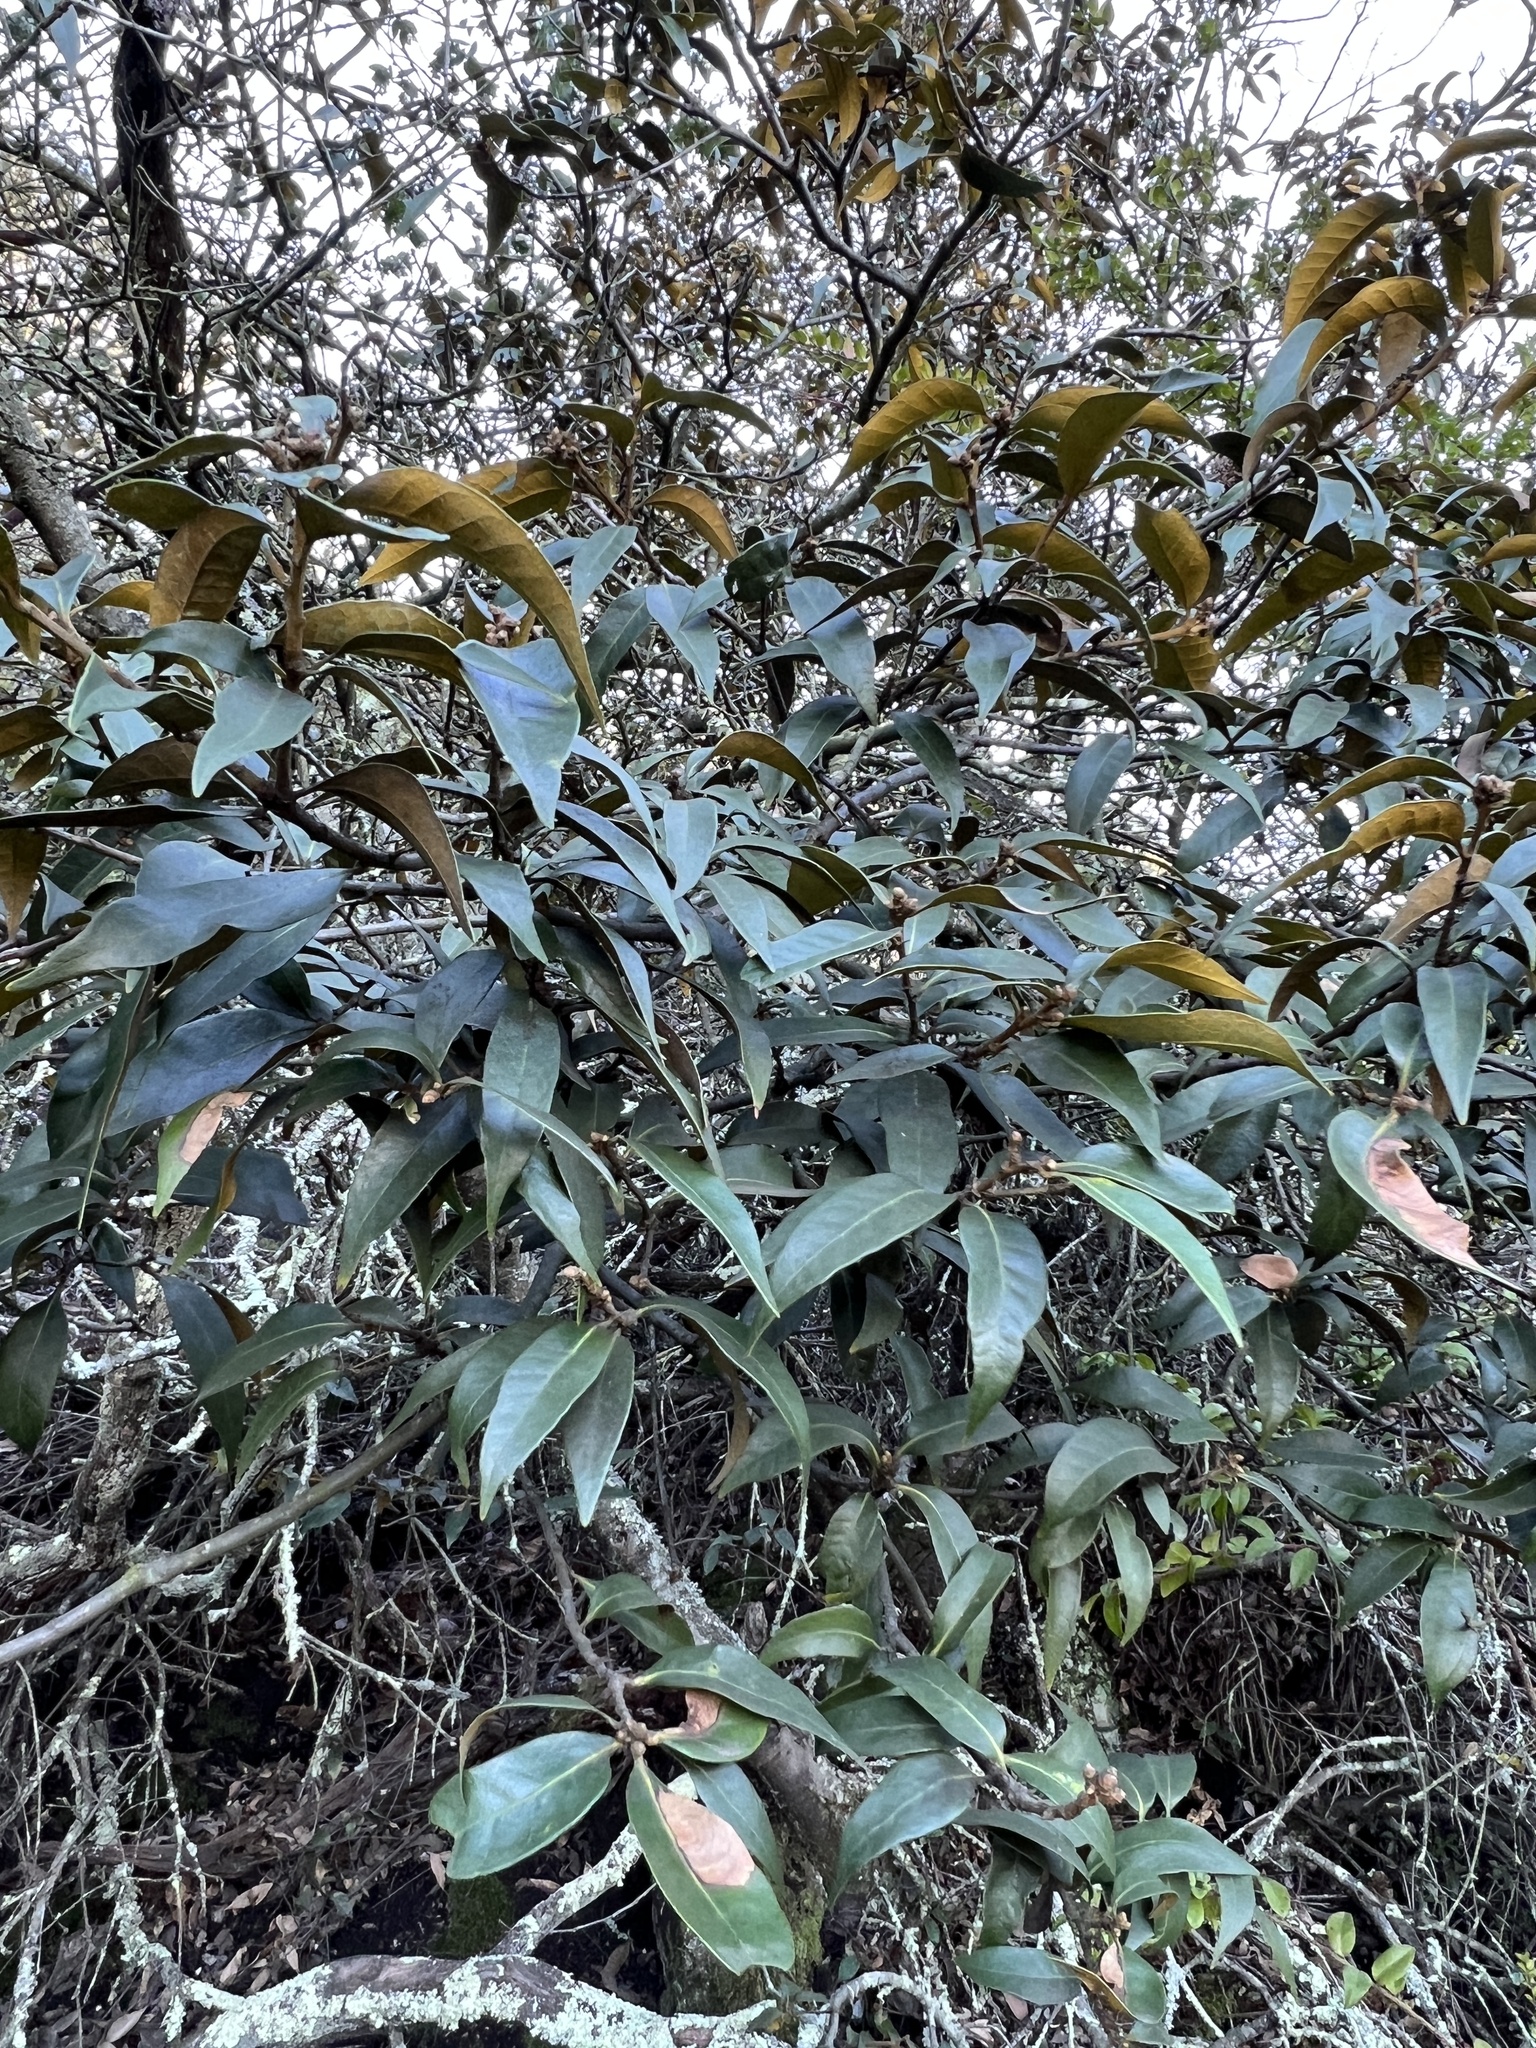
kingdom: Plantae
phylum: Tracheophyta
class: Magnoliopsida
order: Fagales
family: Fagaceae
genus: Chrysolepis
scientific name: Chrysolepis chrysophylla
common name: Giant chinquapin
